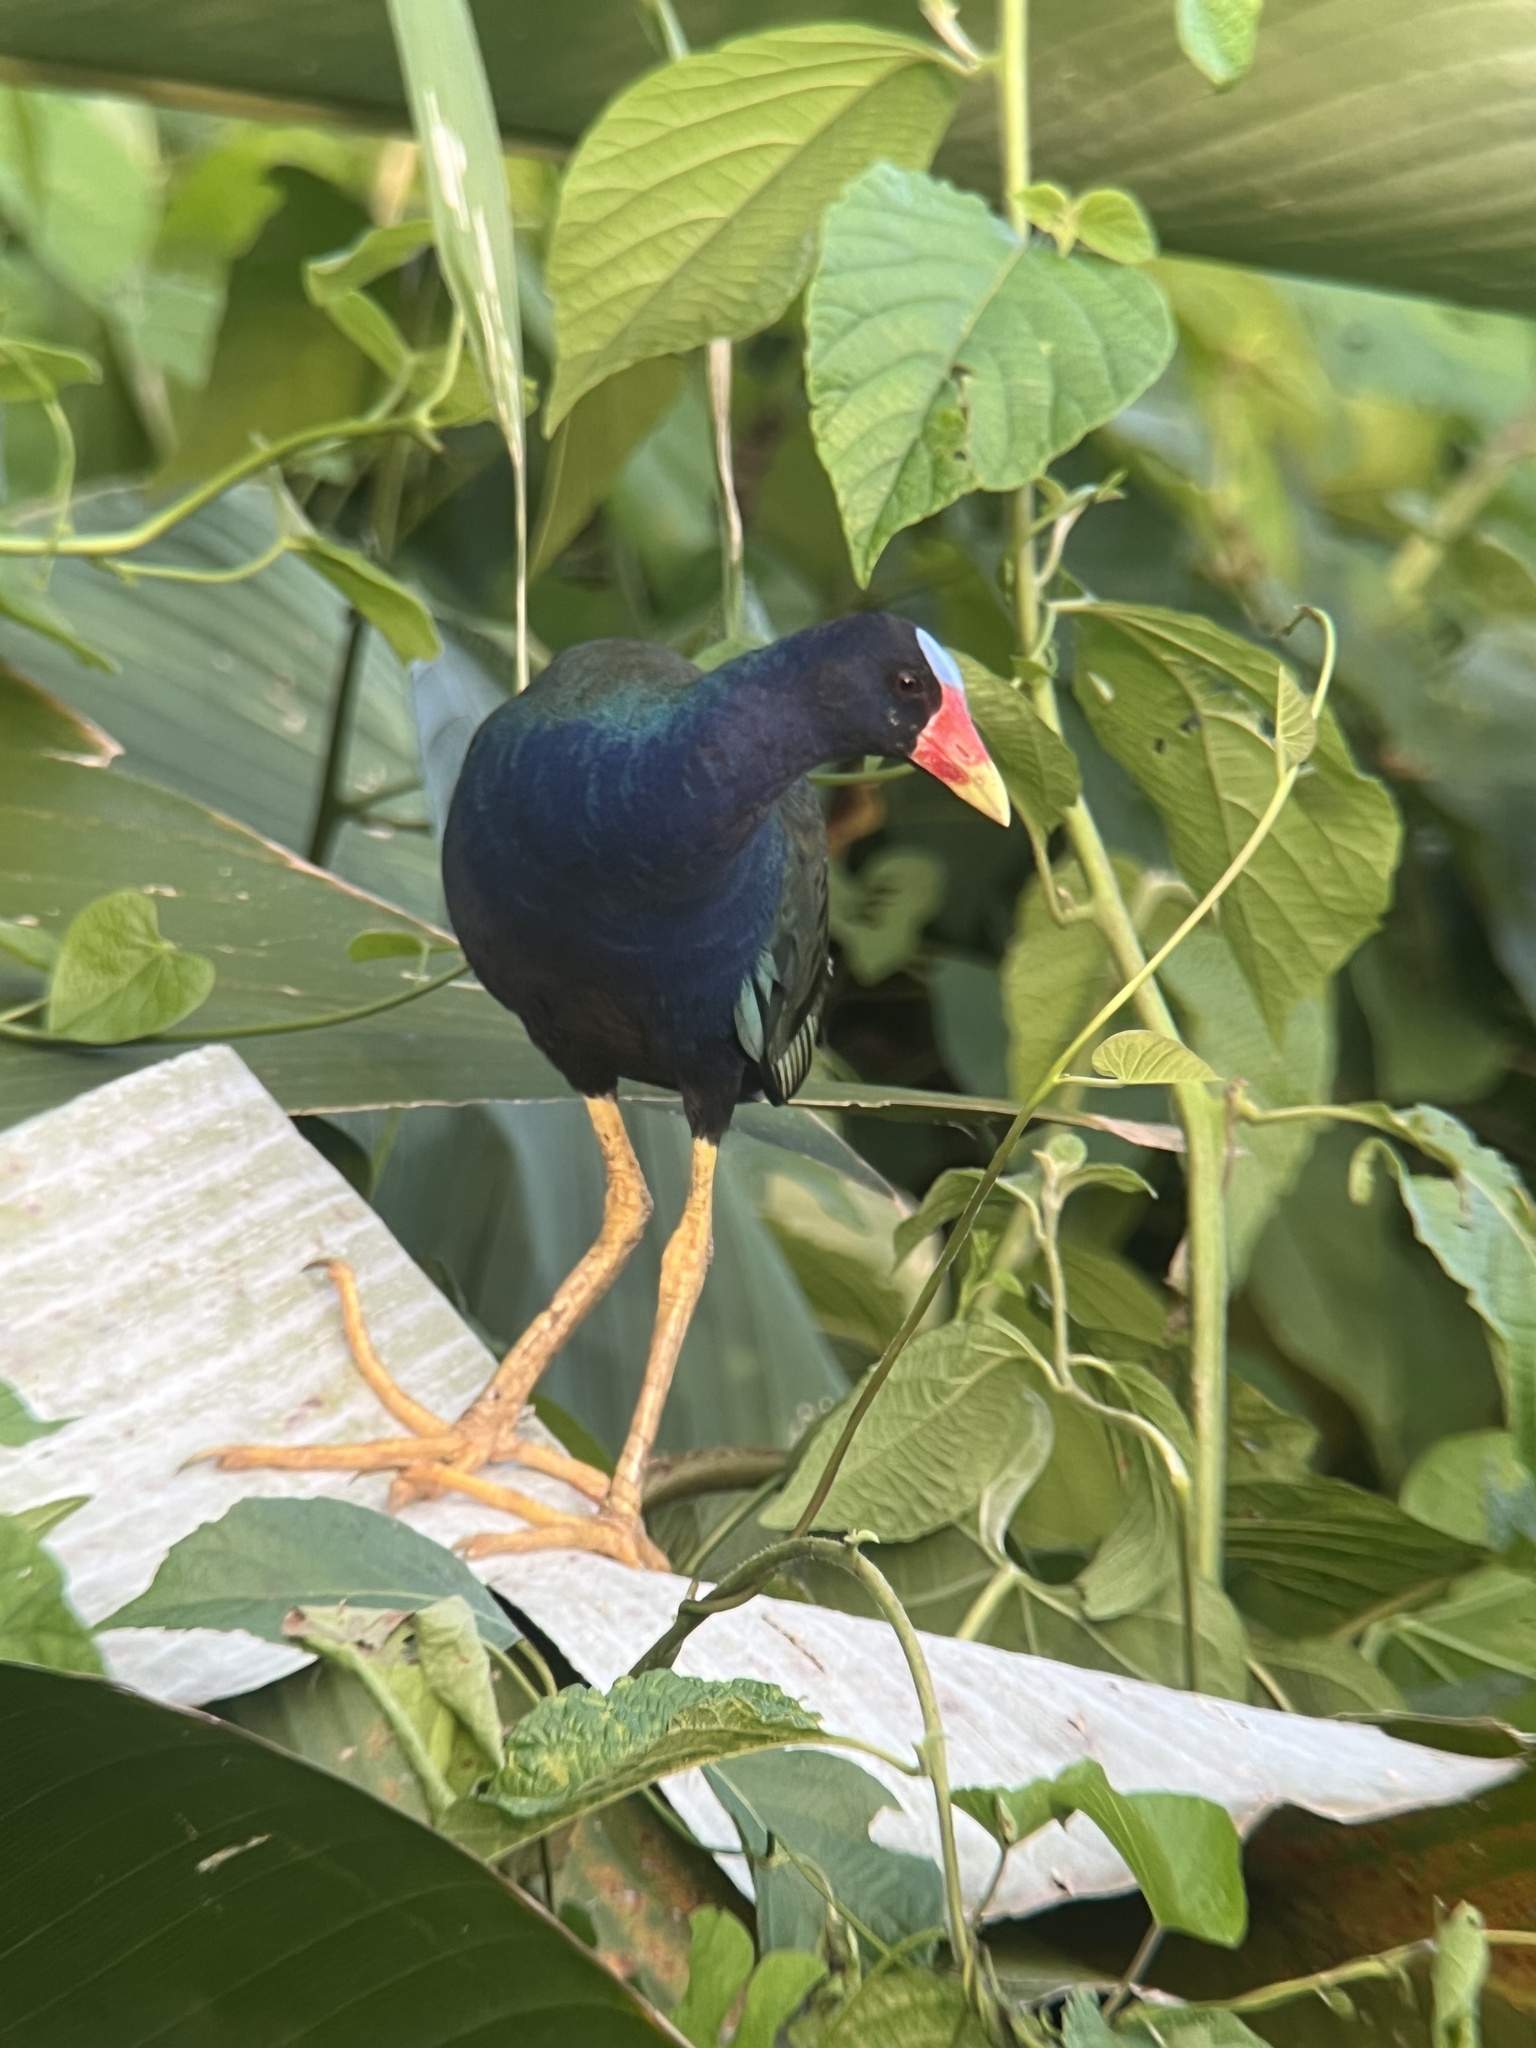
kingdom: Animalia
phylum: Chordata
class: Aves
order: Gruiformes
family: Rallidae
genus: Porphyrio
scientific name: Porphyrio martinica
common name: Purple gallinule
